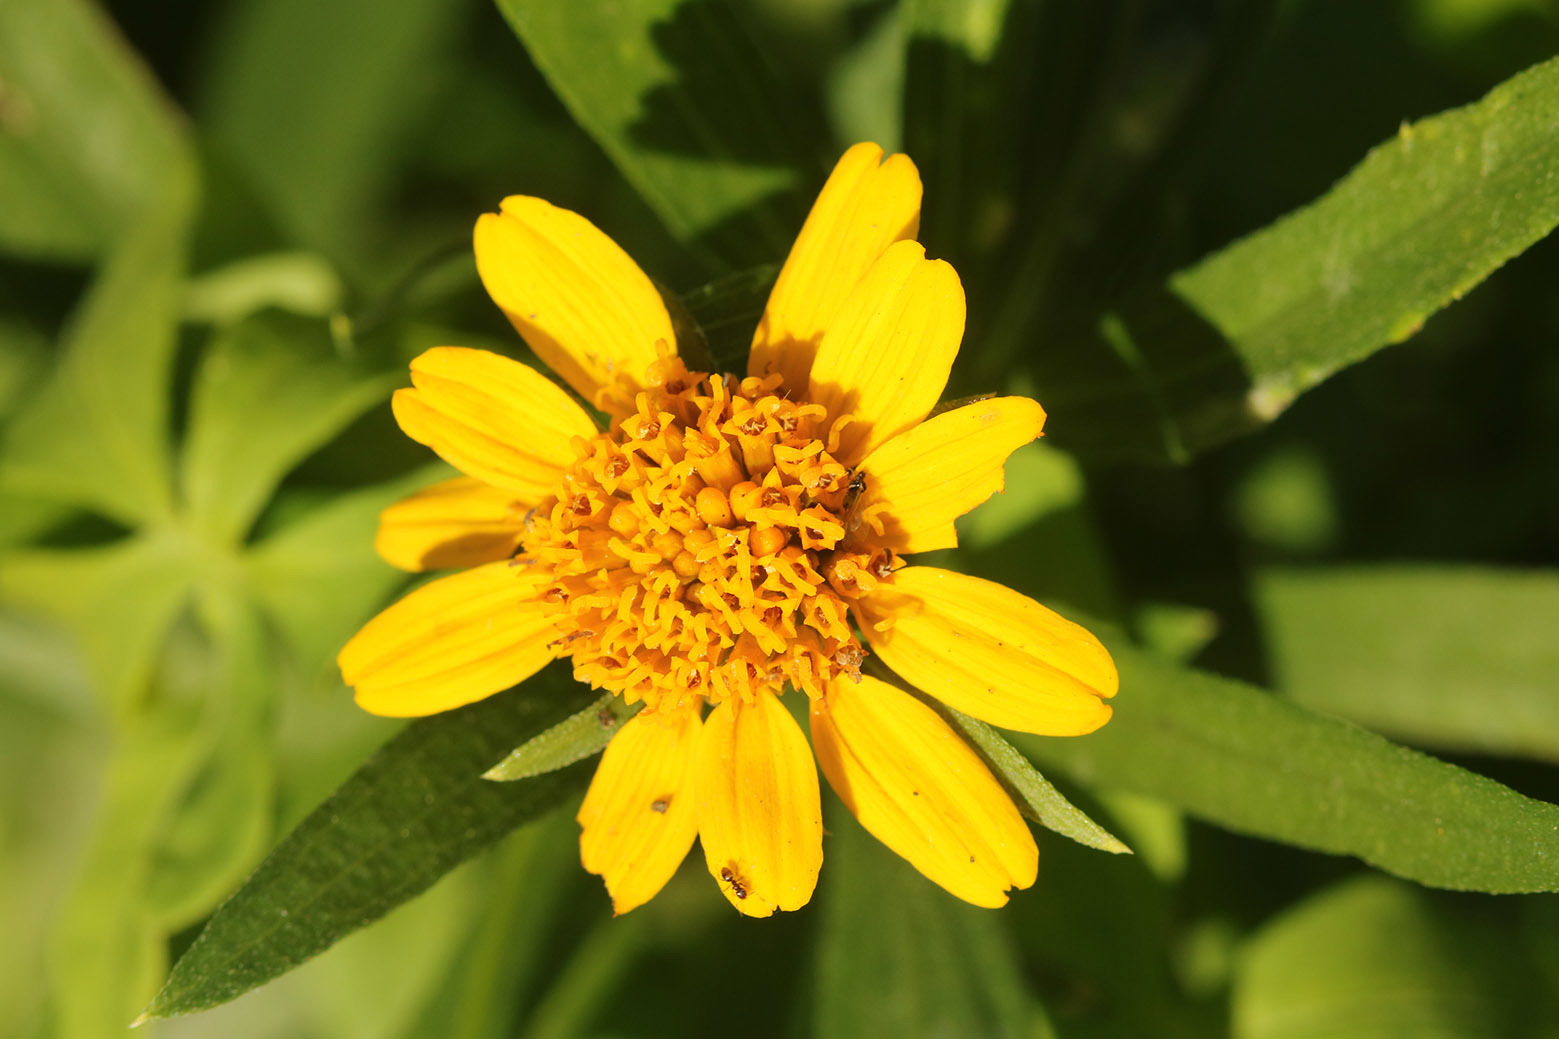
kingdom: Plantae
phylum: Tracheophyta
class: Magnoliopsida
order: Asterales
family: Asteraceae
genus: Pascalia
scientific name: Pascalia glauca
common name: Beach creeping oxeye
